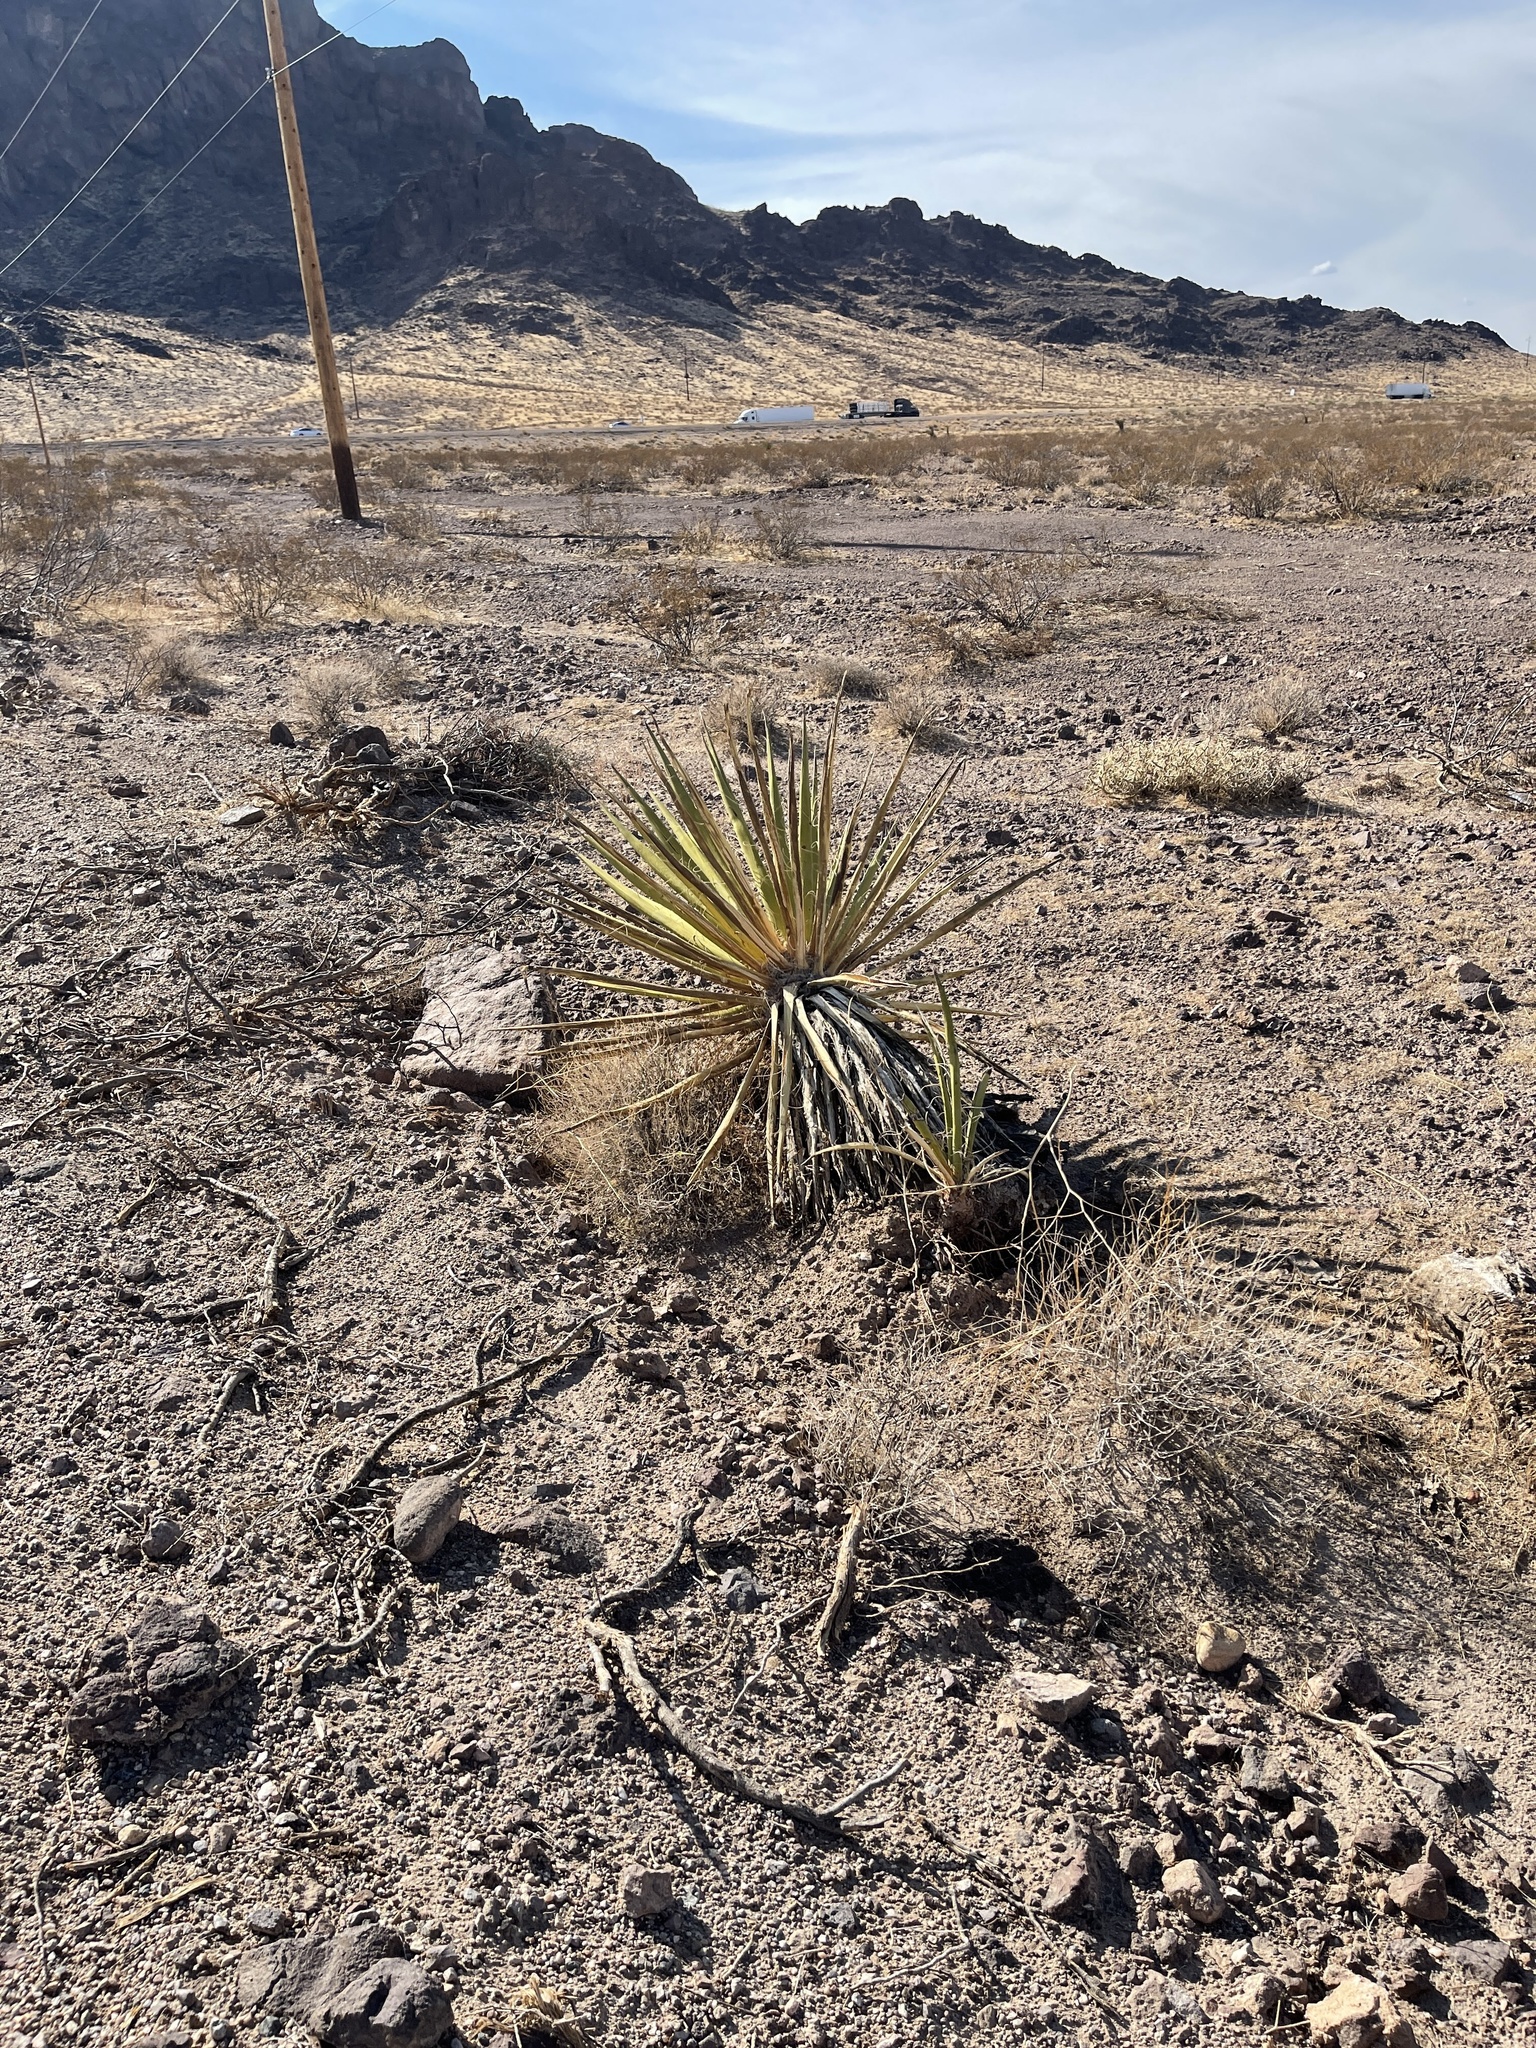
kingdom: Plantae
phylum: Tracheophyta
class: Liliopsida
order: Asparagales
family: Asparagaceae
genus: Yucca
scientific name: Yucca schidigera
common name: Mojave yucca
